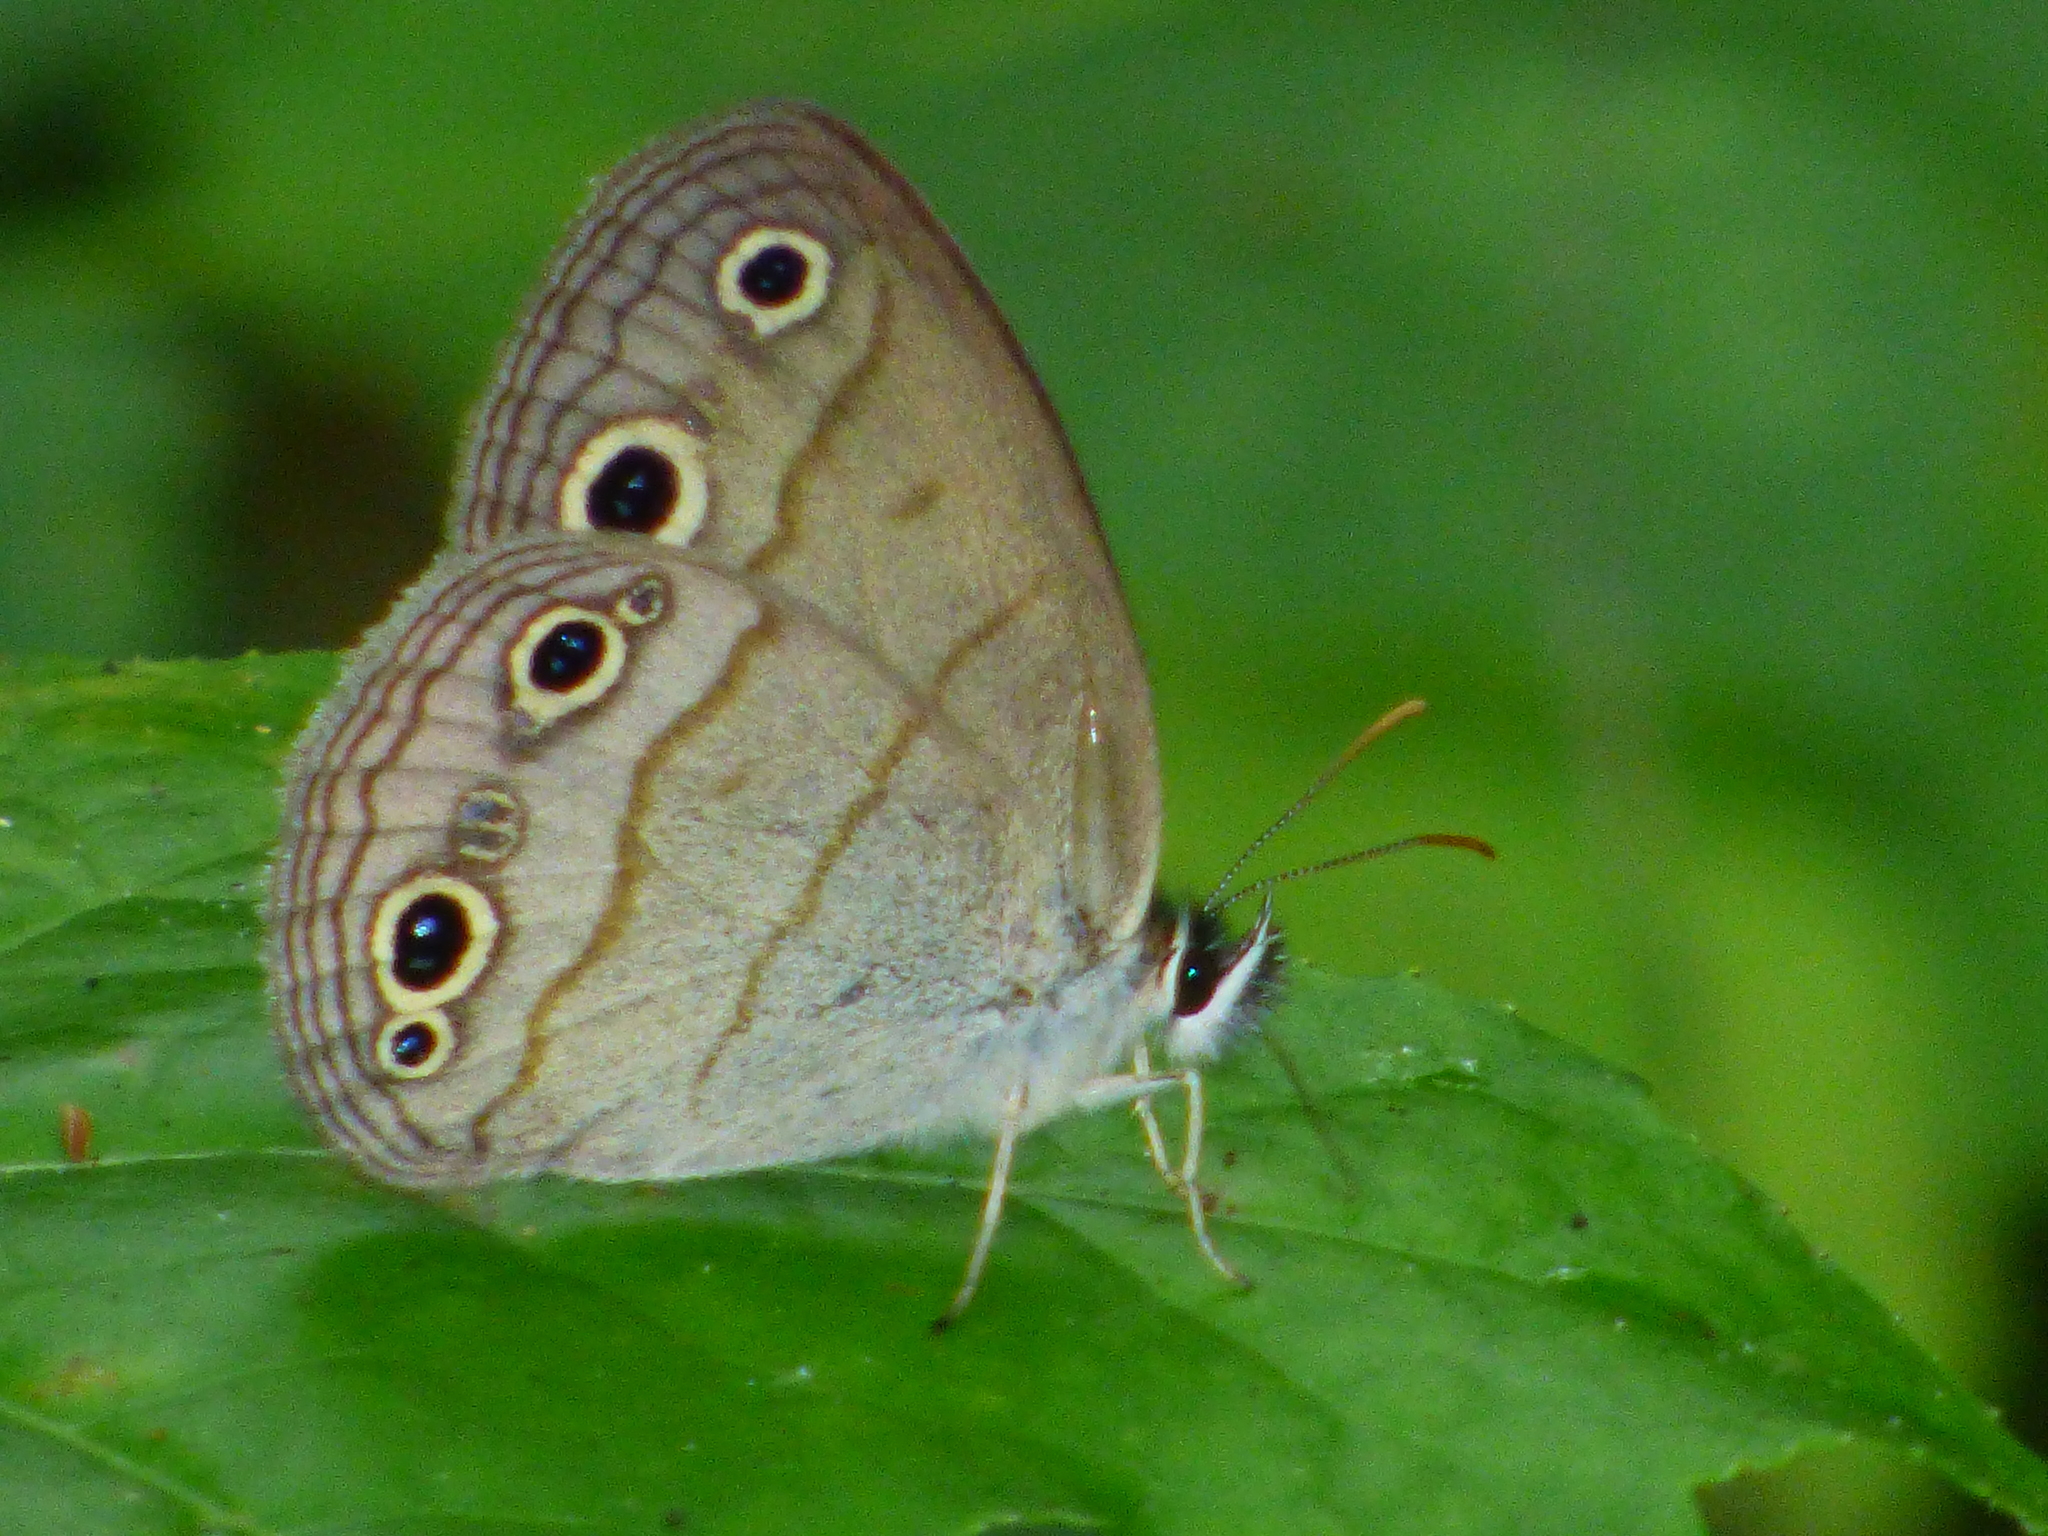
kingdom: Animalia
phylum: Arthropoda
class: Insecta
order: Lepidoptera
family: Nymphalidae
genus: Euptychia
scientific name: Euptychia cymela
